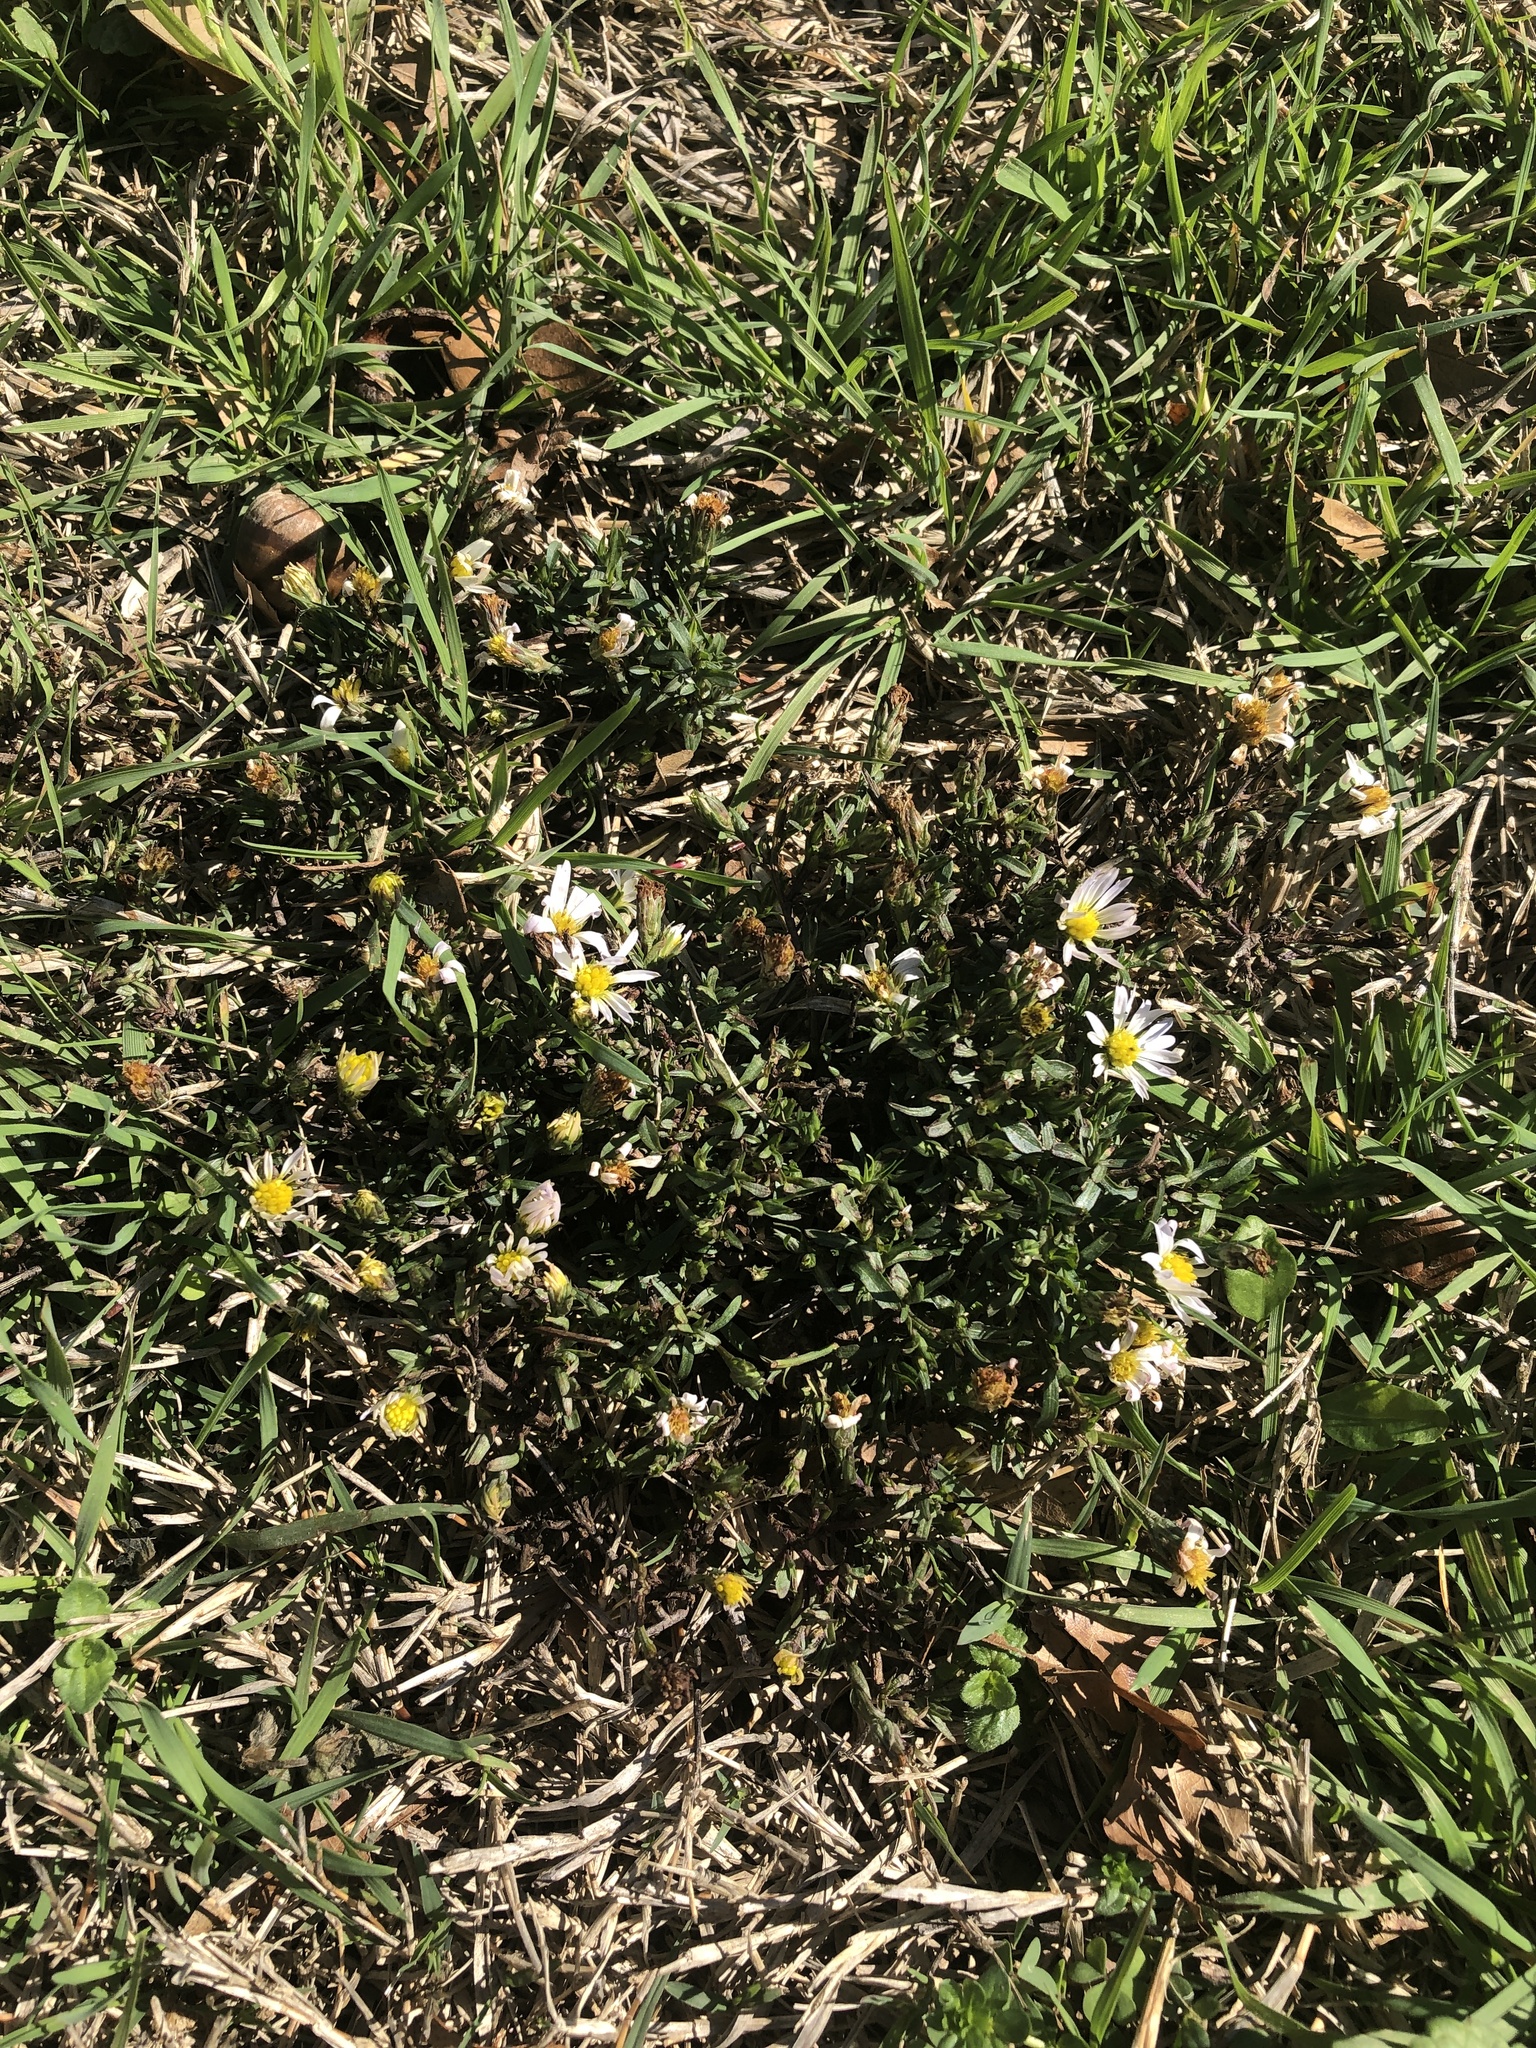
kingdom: Plantae
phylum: Tracheophyta
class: Magnoliopsida
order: Asterales
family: Asteraceae
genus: Symphyotrichum
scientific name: Symphyotrichum divaricatum
